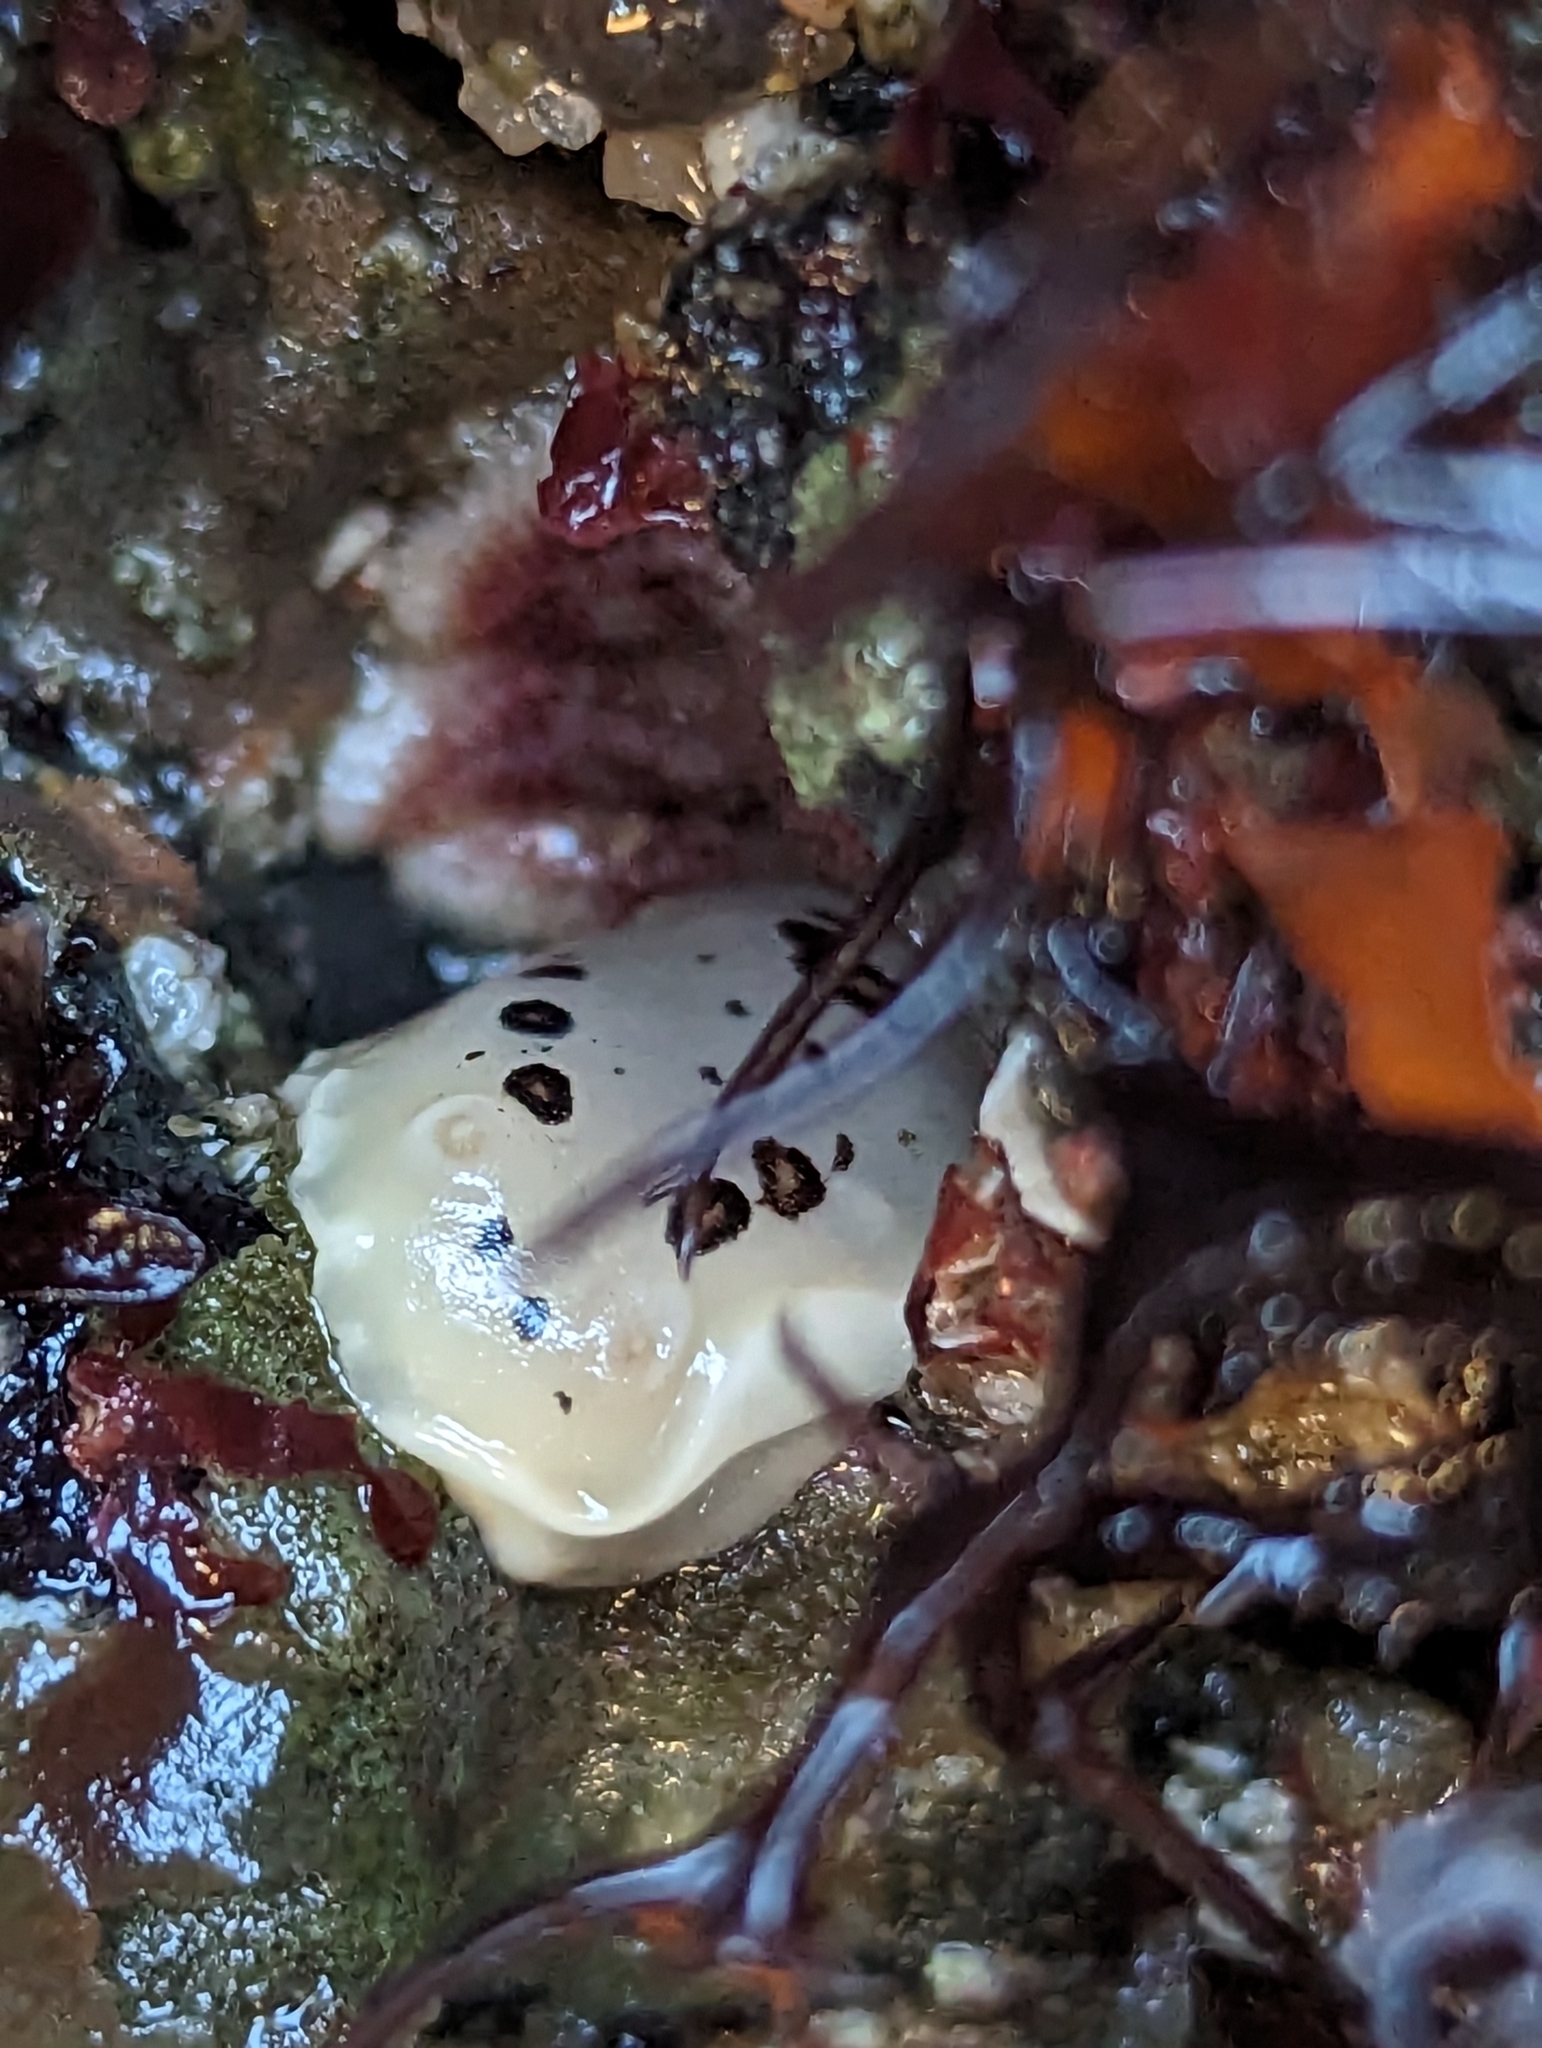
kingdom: Animalia
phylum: Mollusca
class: Gastropoda
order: Nudibranchia
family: Discodorididae
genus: Diaulula
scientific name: Diaulula sandiegensis
